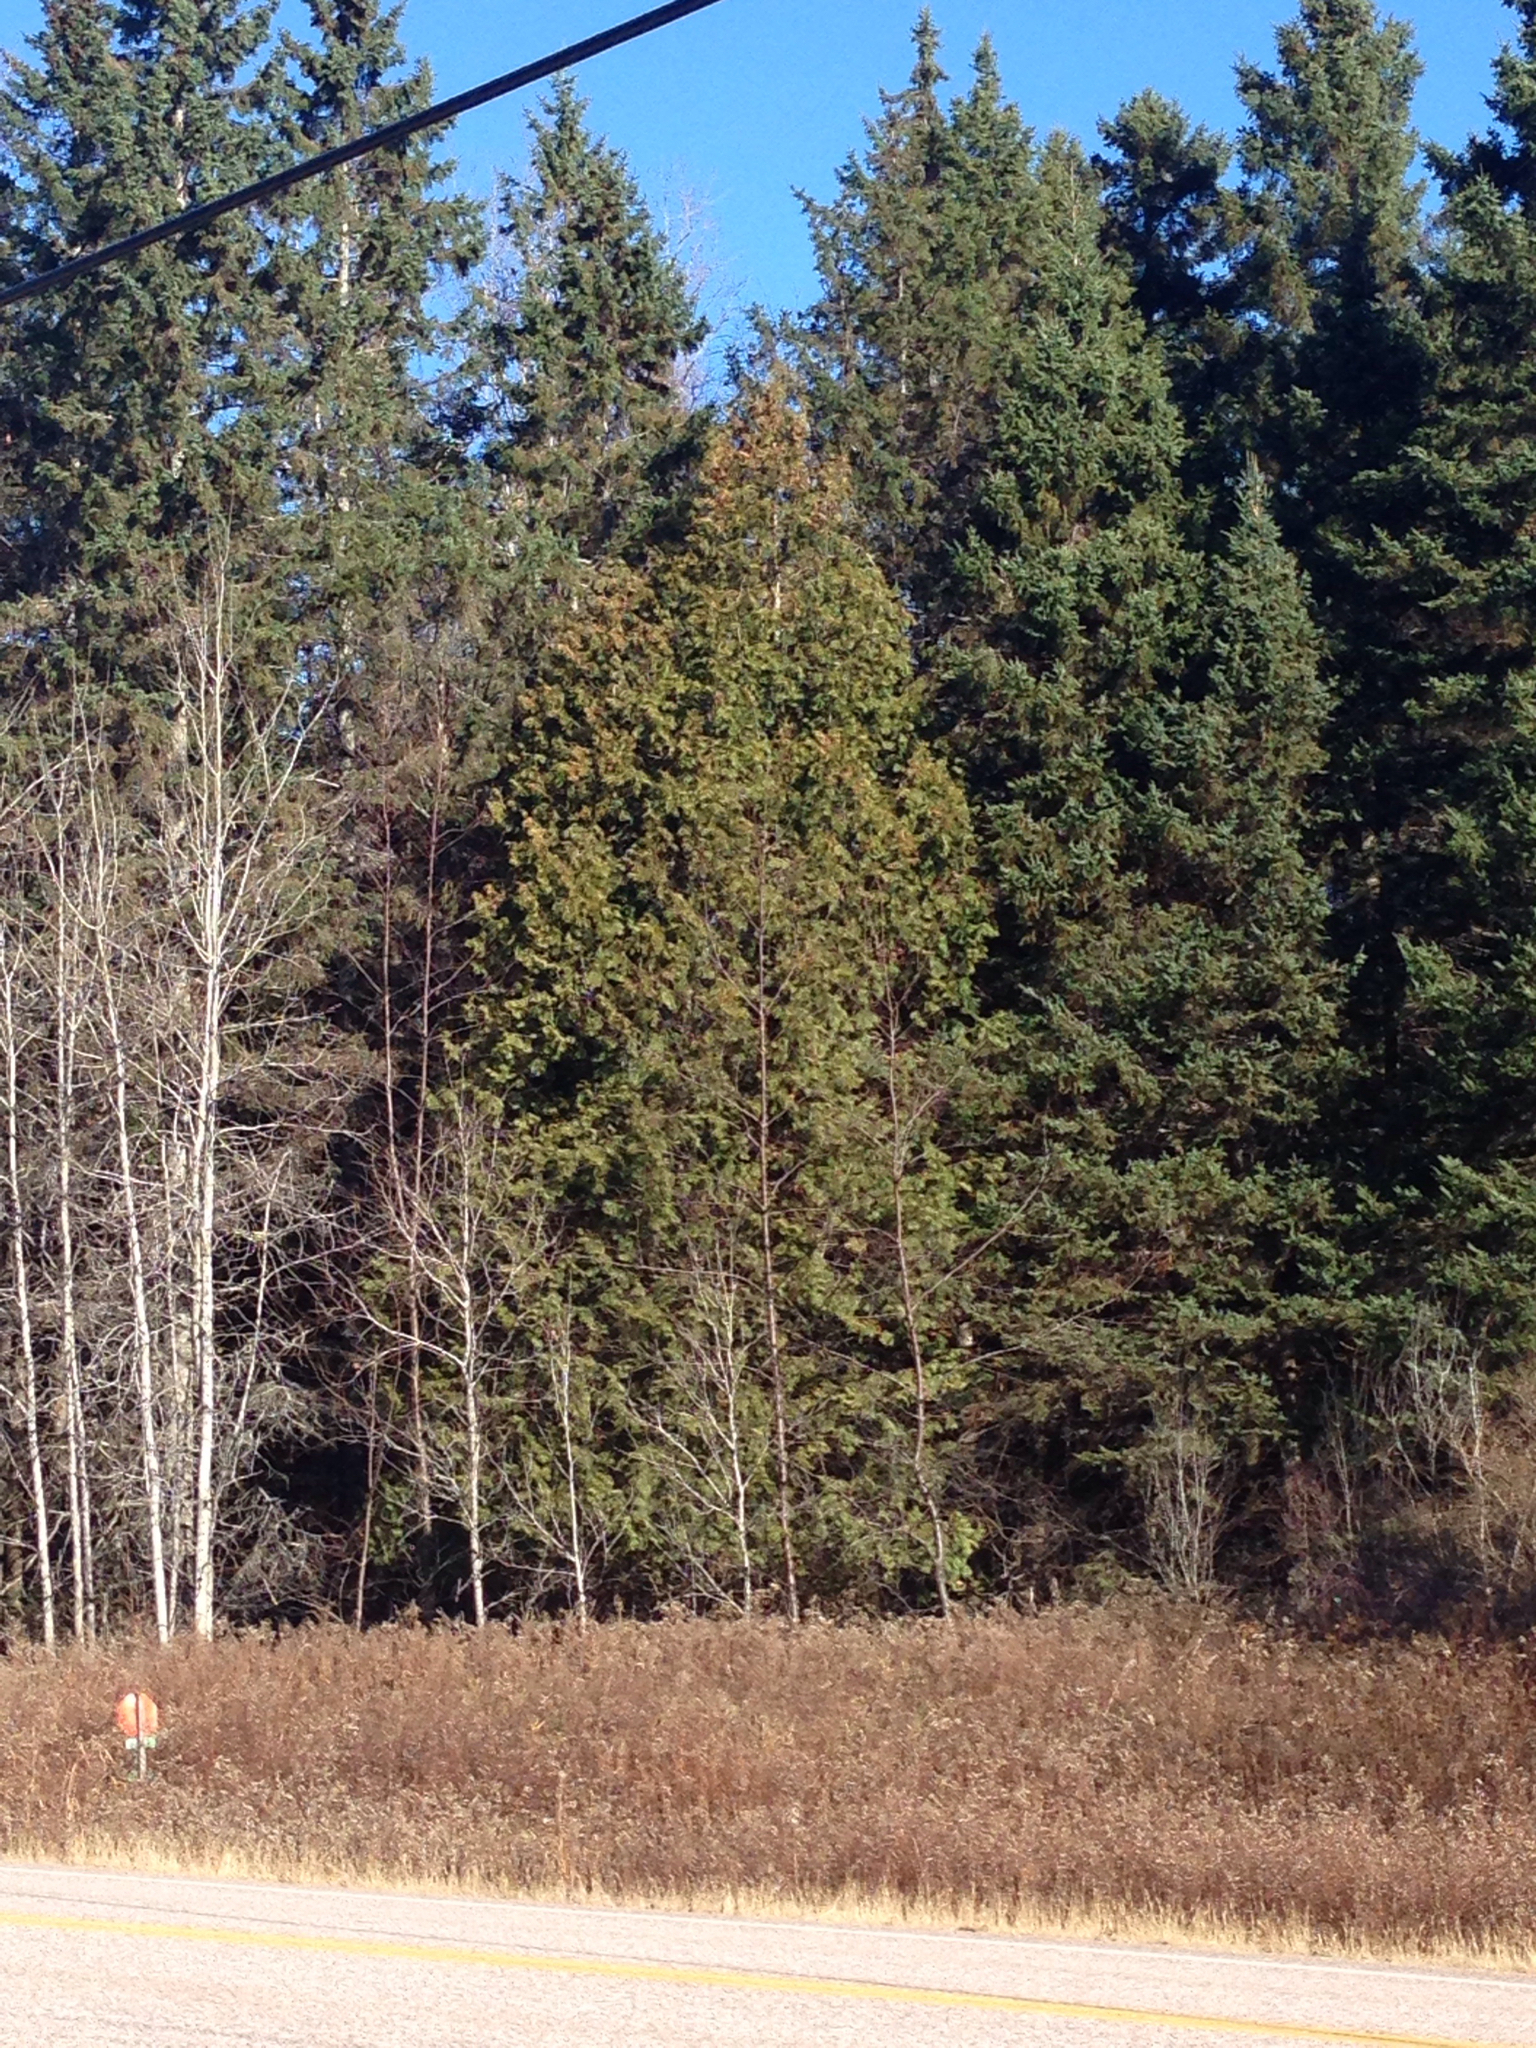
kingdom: Plantae
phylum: Tracheophyta
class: Pinopsida
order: Pinales
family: Cupressaceae
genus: Thuja
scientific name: Thuja occidentalis
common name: Northern white-cedar
